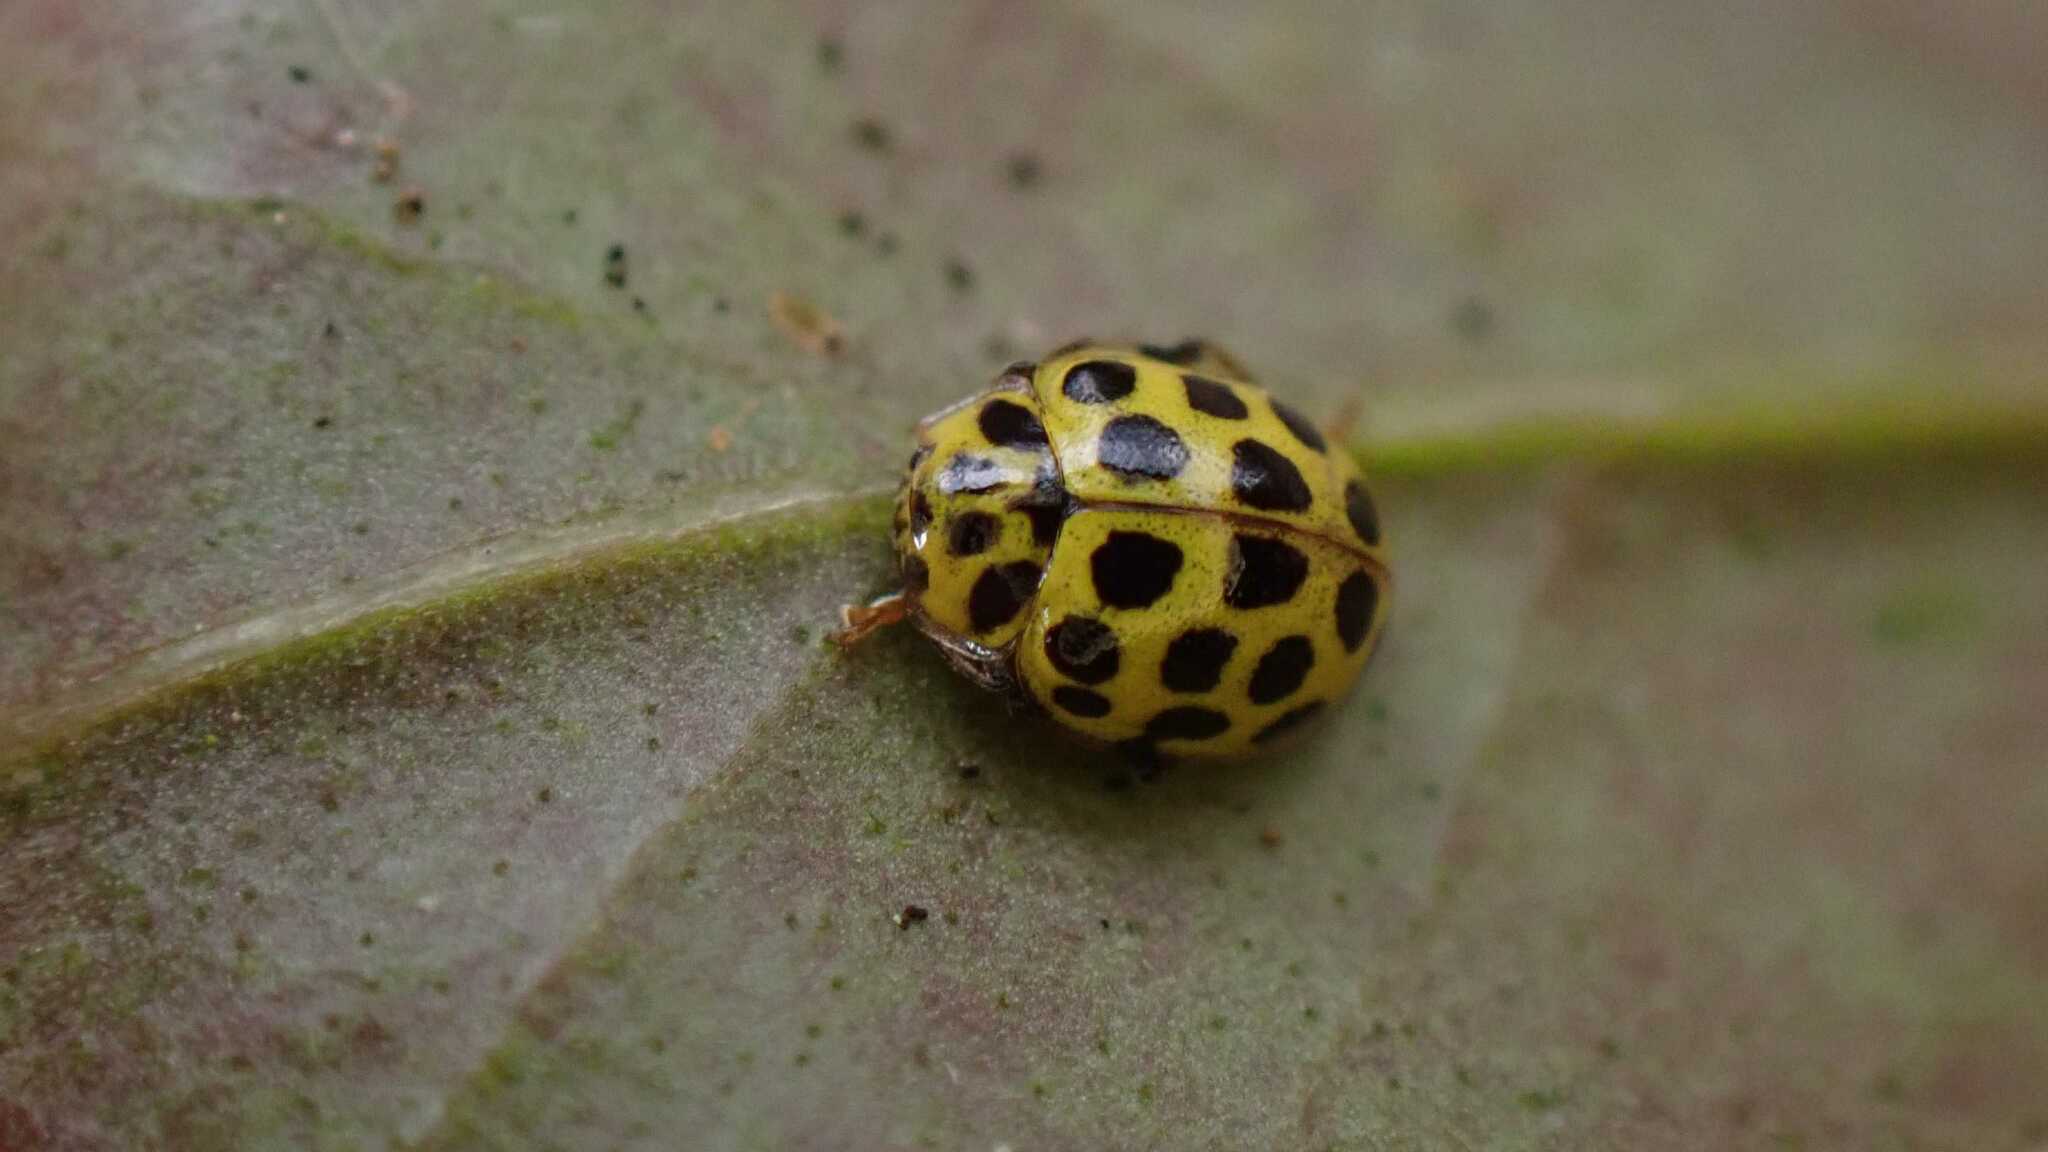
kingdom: Animalia
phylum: Arthropoda
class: Insecta
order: Coleoptera
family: Coccinellidae
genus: Psyllobora
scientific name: Psyllobora vigintiduopunctata
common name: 22-spot ladybird
